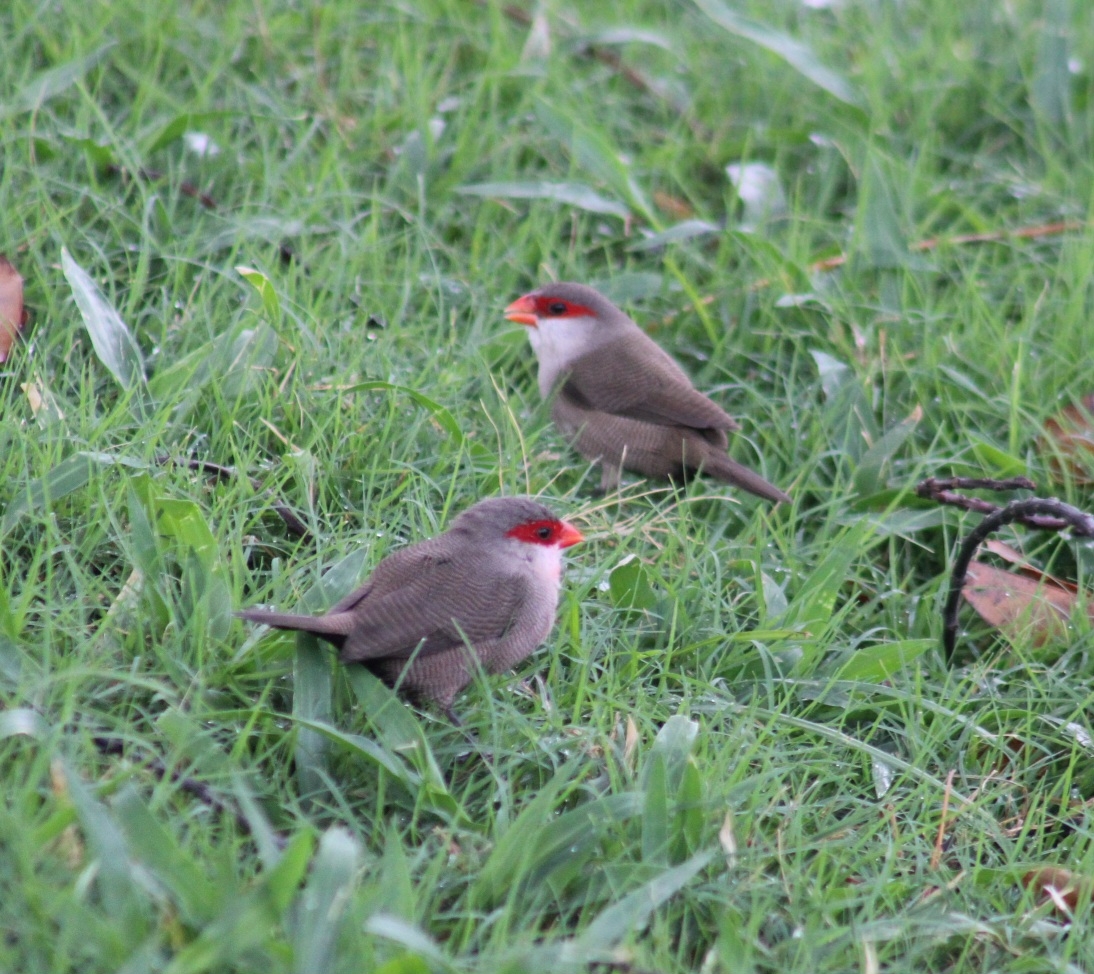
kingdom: Animalia
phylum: Chordata
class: Aves
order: Passeriformes
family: Estrildidae
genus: Estrilda
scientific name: Estrilda astrild
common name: Common waxbill
